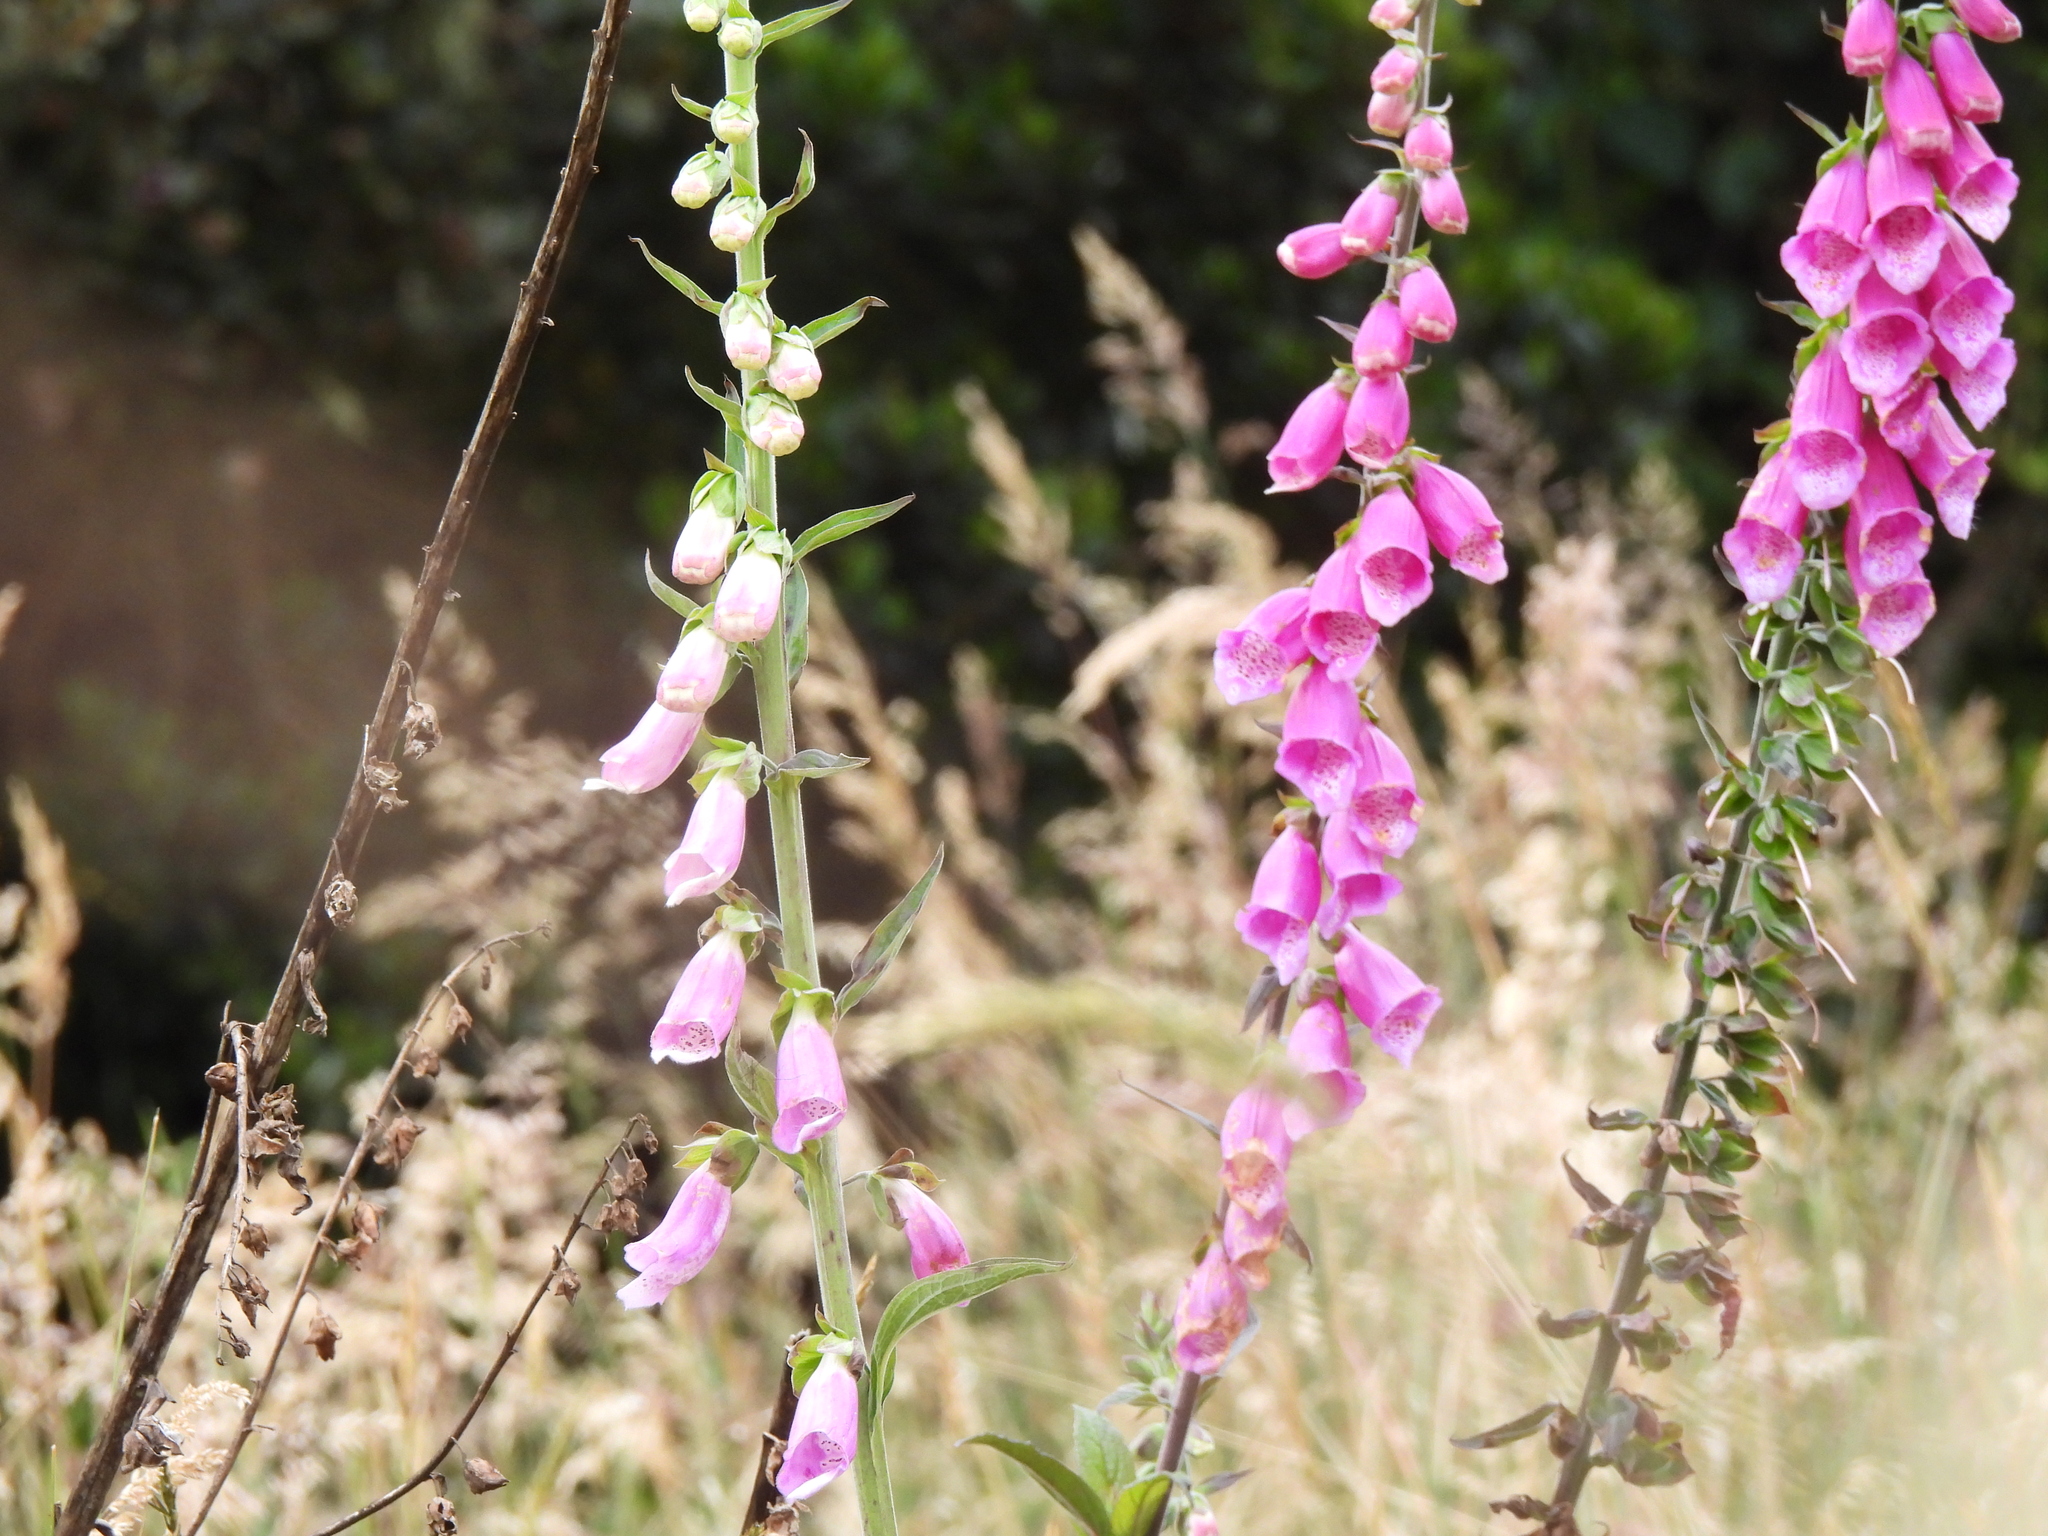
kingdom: Plantae
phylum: Tracheophyta
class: Magnoliopsida
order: Lamiales
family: Plantaginaceae
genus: Digitalis
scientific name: Digitalis purpurea
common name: Foxglove
